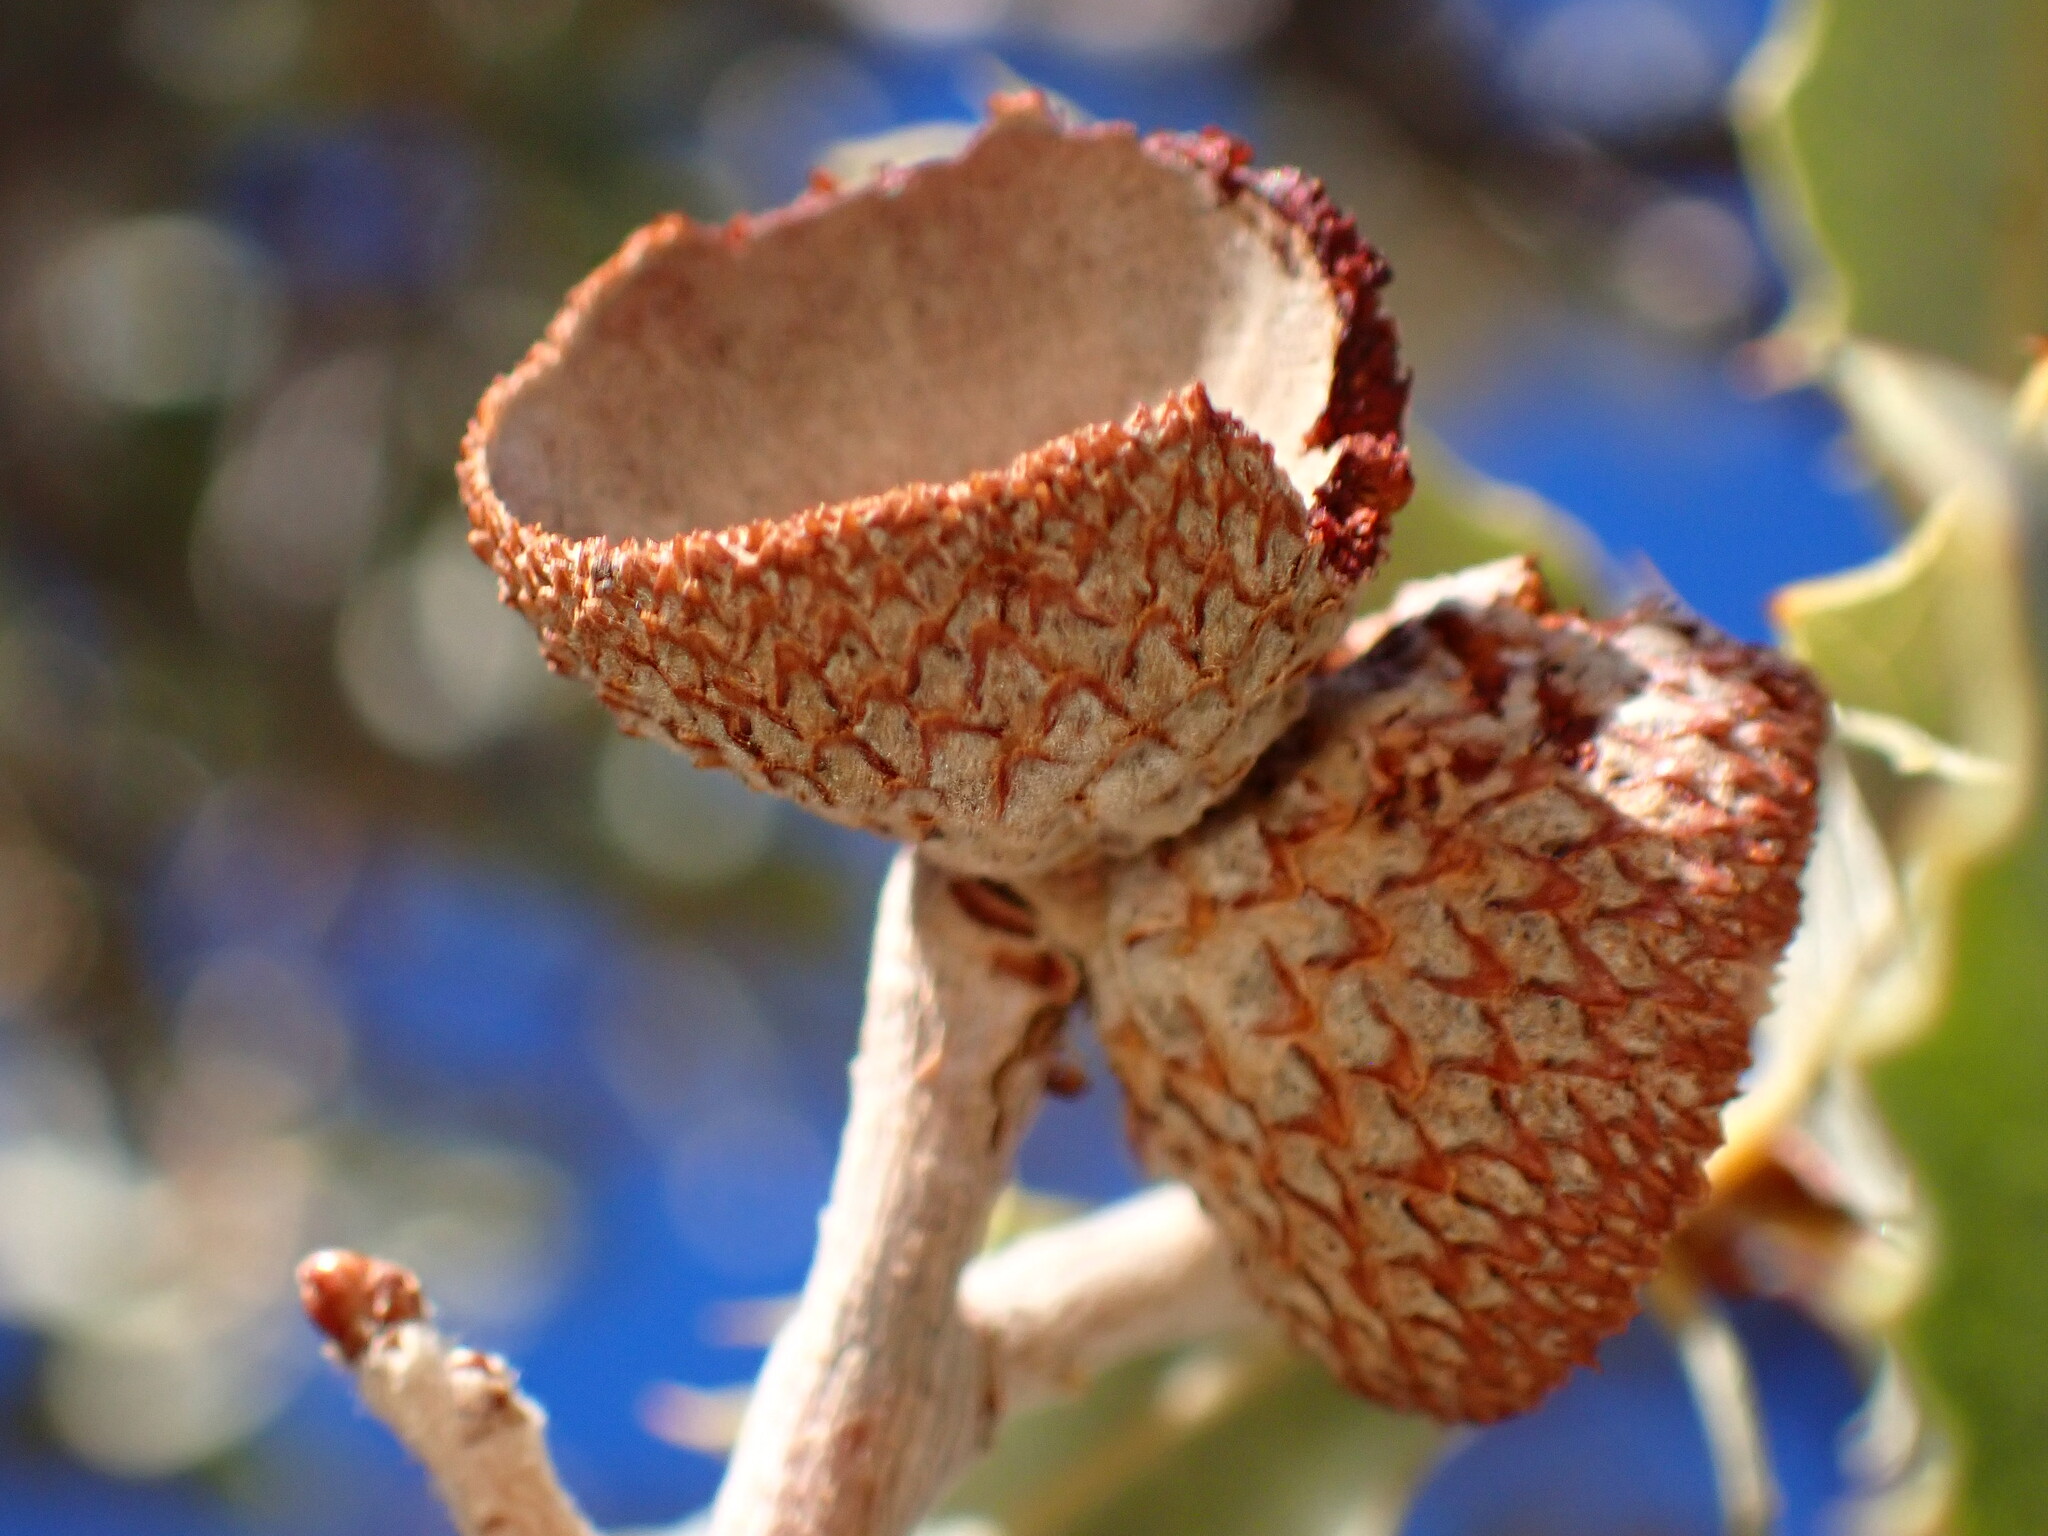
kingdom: Plantae
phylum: Tracheophyta
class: Magnoliopsida
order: Fagales
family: Fagaceae
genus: Quercus
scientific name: Quercus cornelius-mulleri
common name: Muller oak
